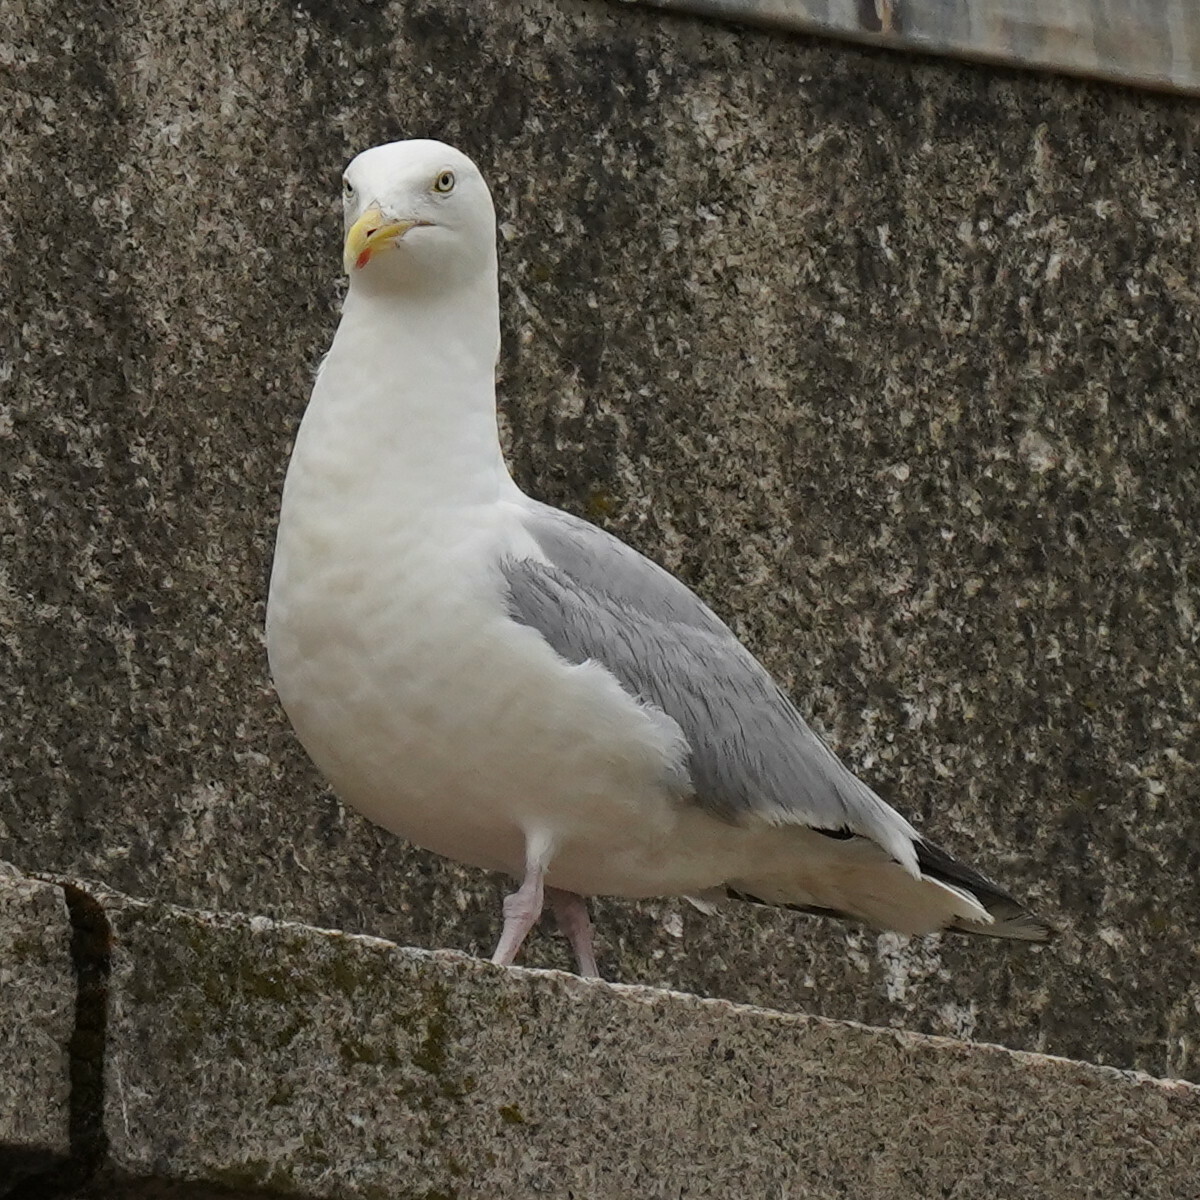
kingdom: Animalia
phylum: Chordata
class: Aves
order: Charadriiformes
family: Laridae
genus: Larus
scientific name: Larus argentatus
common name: Herring gull
